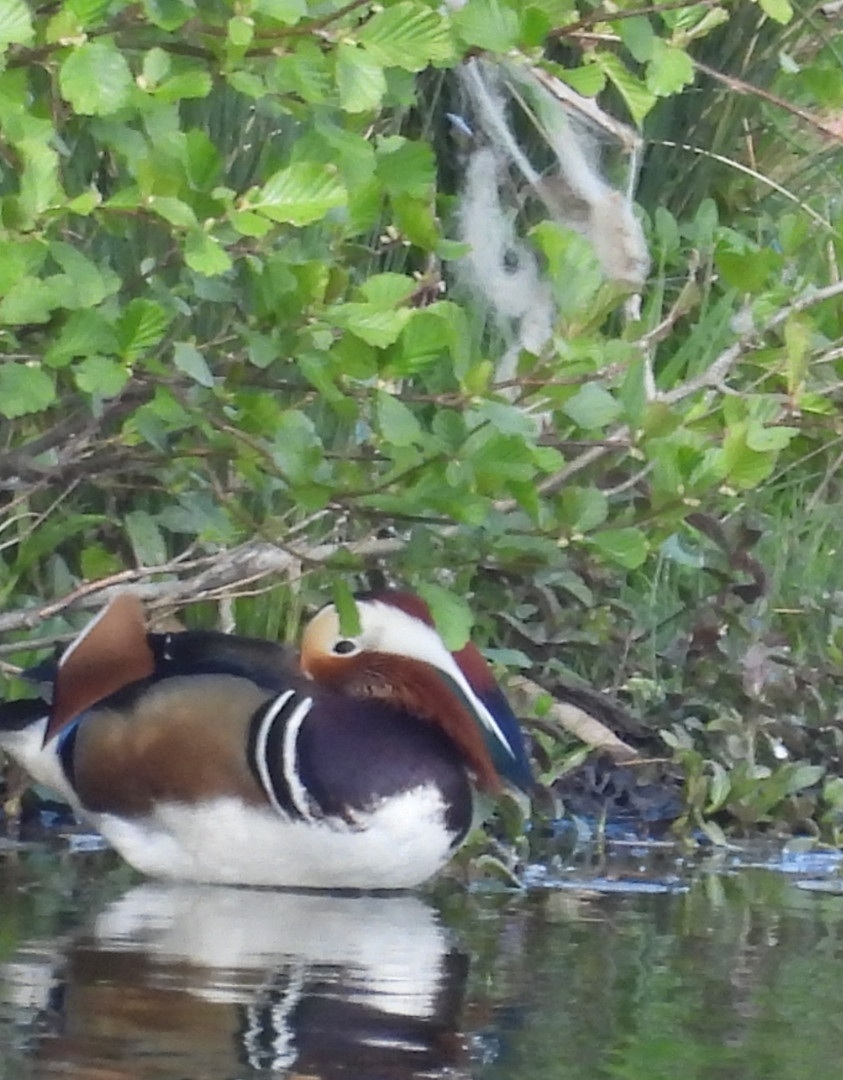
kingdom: Animalia
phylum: Chordata
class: Aves
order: Anseriformes
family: Anatidae
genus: Aix
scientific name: Aix galericulata
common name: Mandarin duck
